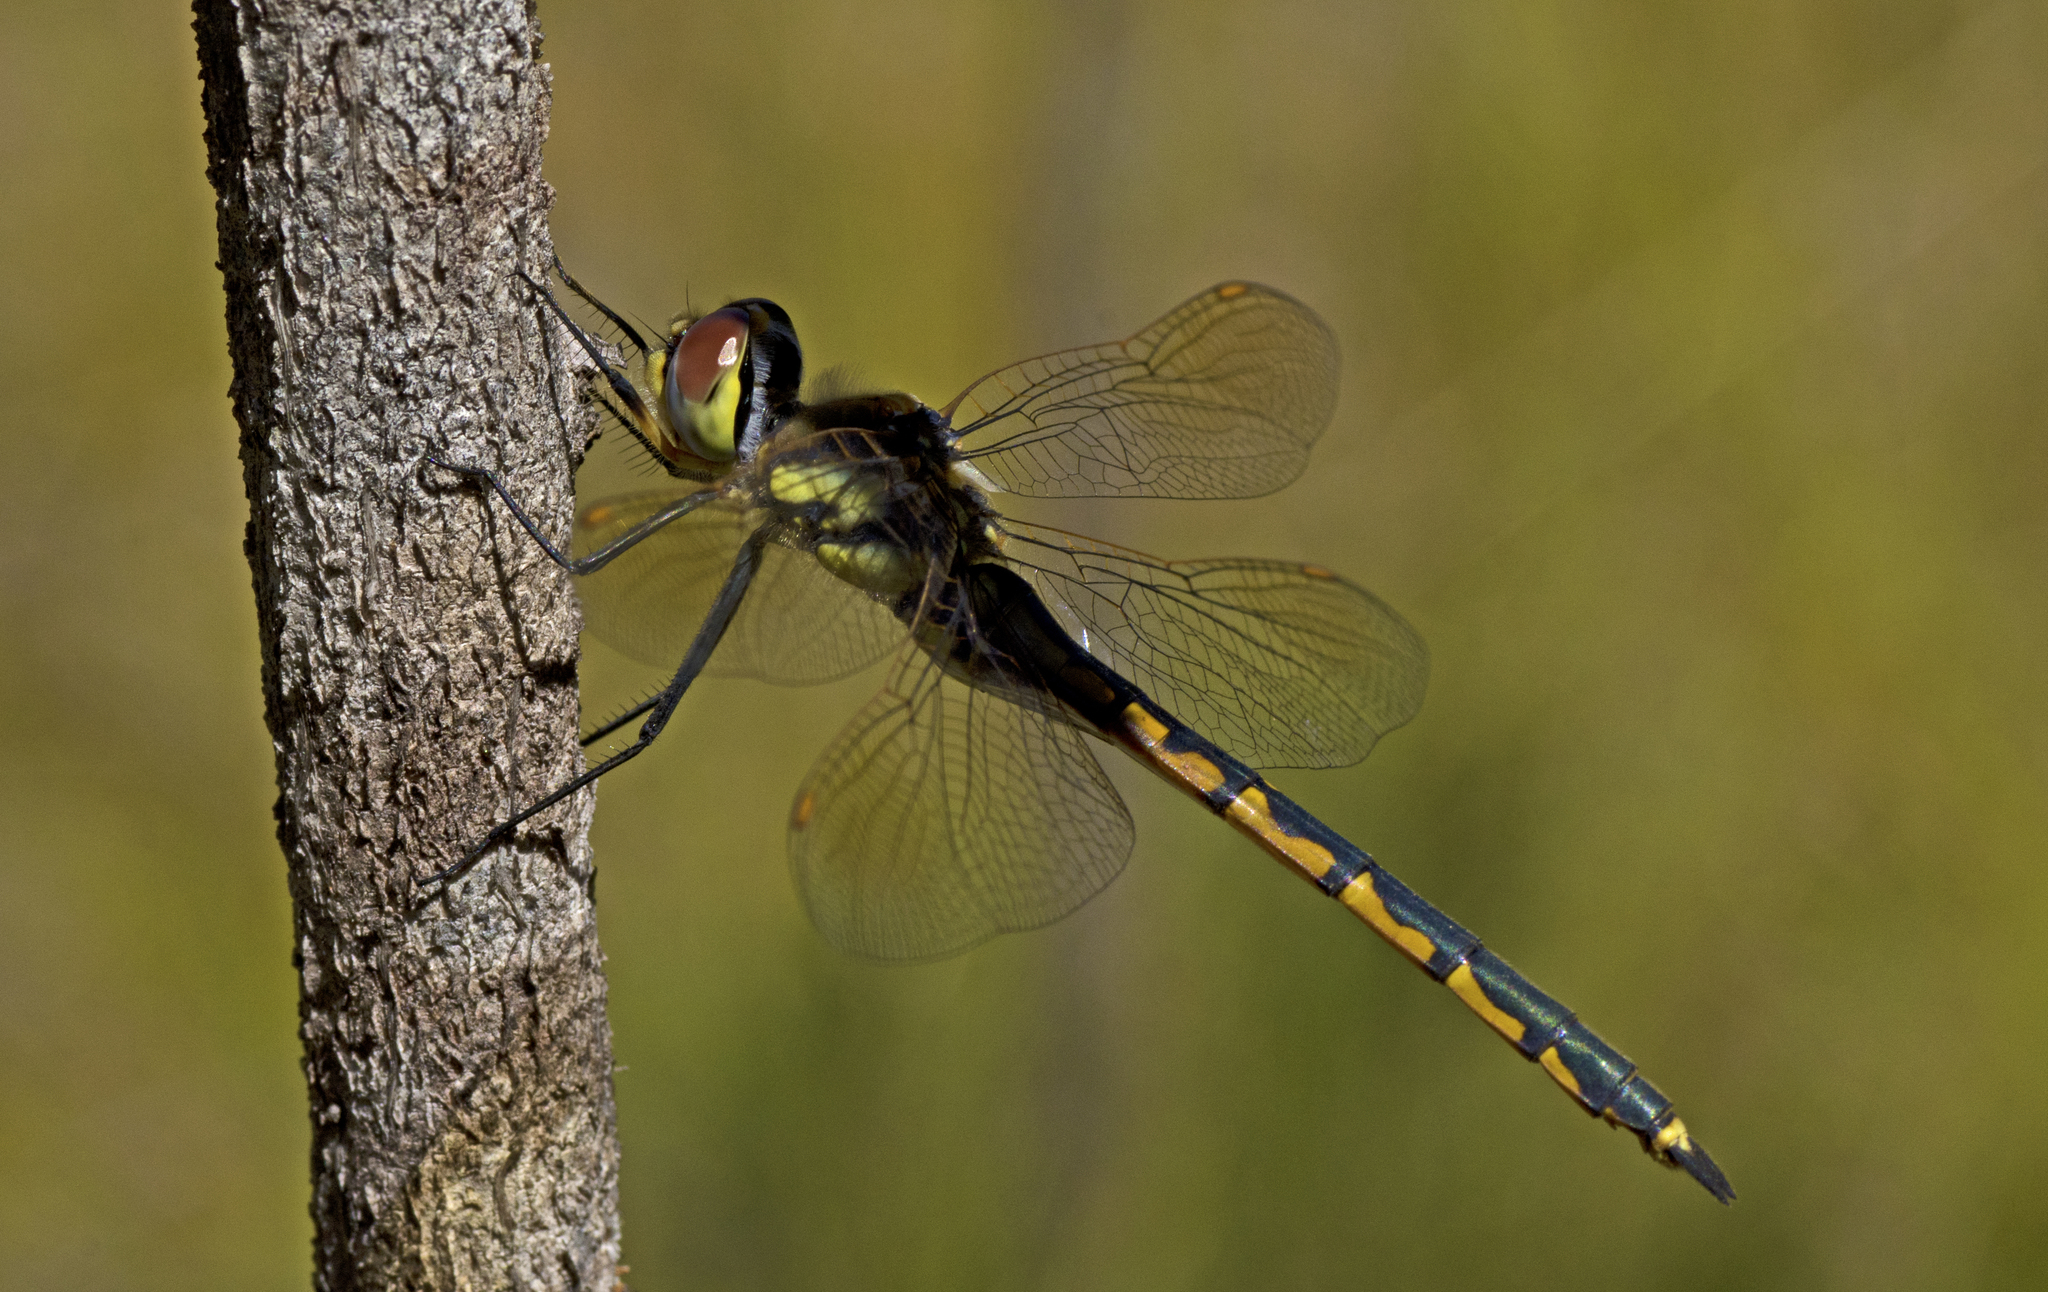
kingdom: Animalia
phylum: Arthropoda
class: Insecta
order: Odonata
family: Corduliidae
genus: Hemicordulia
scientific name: Hemicordulia tau
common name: Tau emerald
